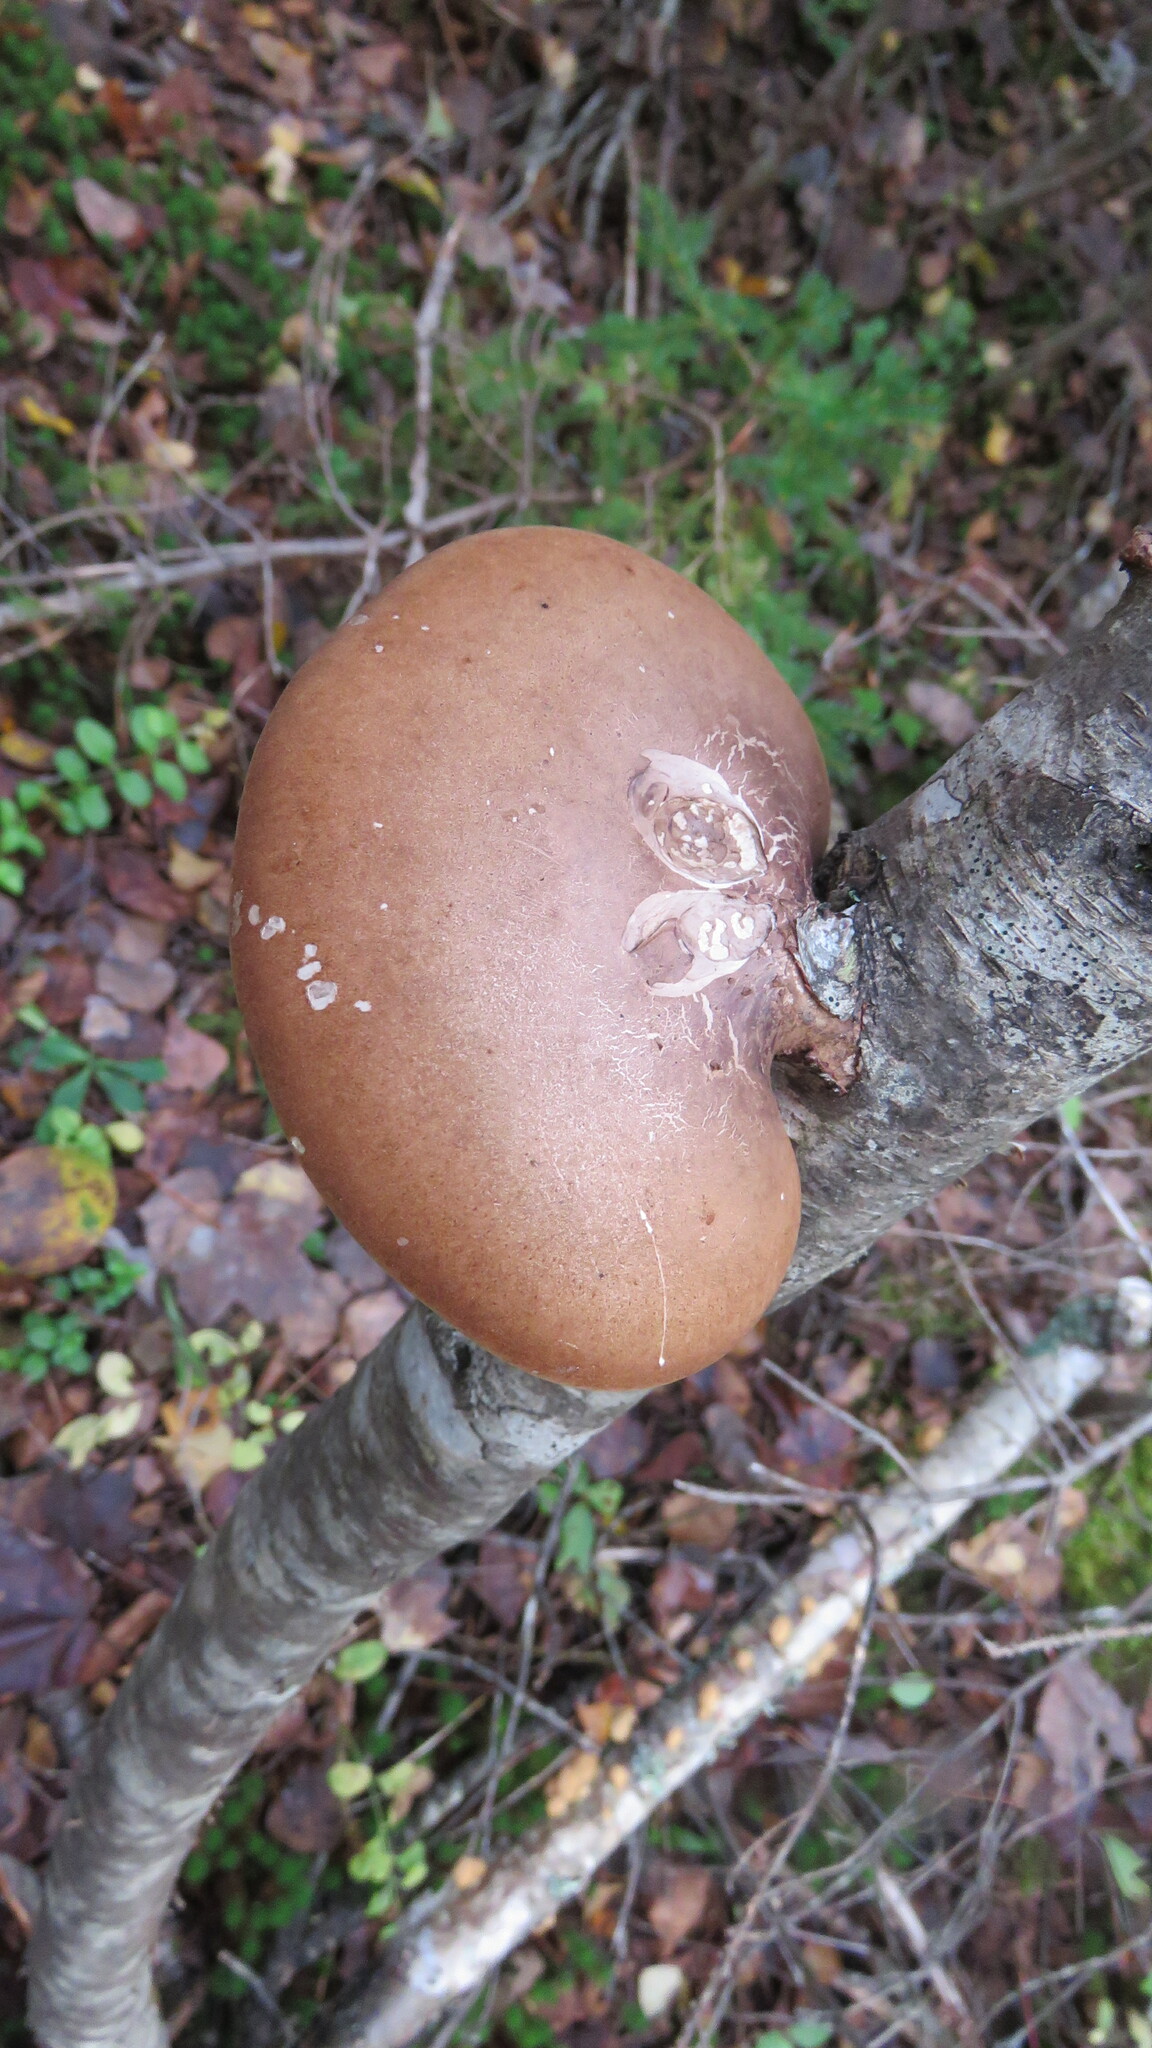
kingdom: Fungi
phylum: Basidiomycota
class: Agaricomycetes
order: Polyporales
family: Fomitopsidaceae
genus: Fomitopsis
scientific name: Fomitopsis betulina
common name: Birch polypore
